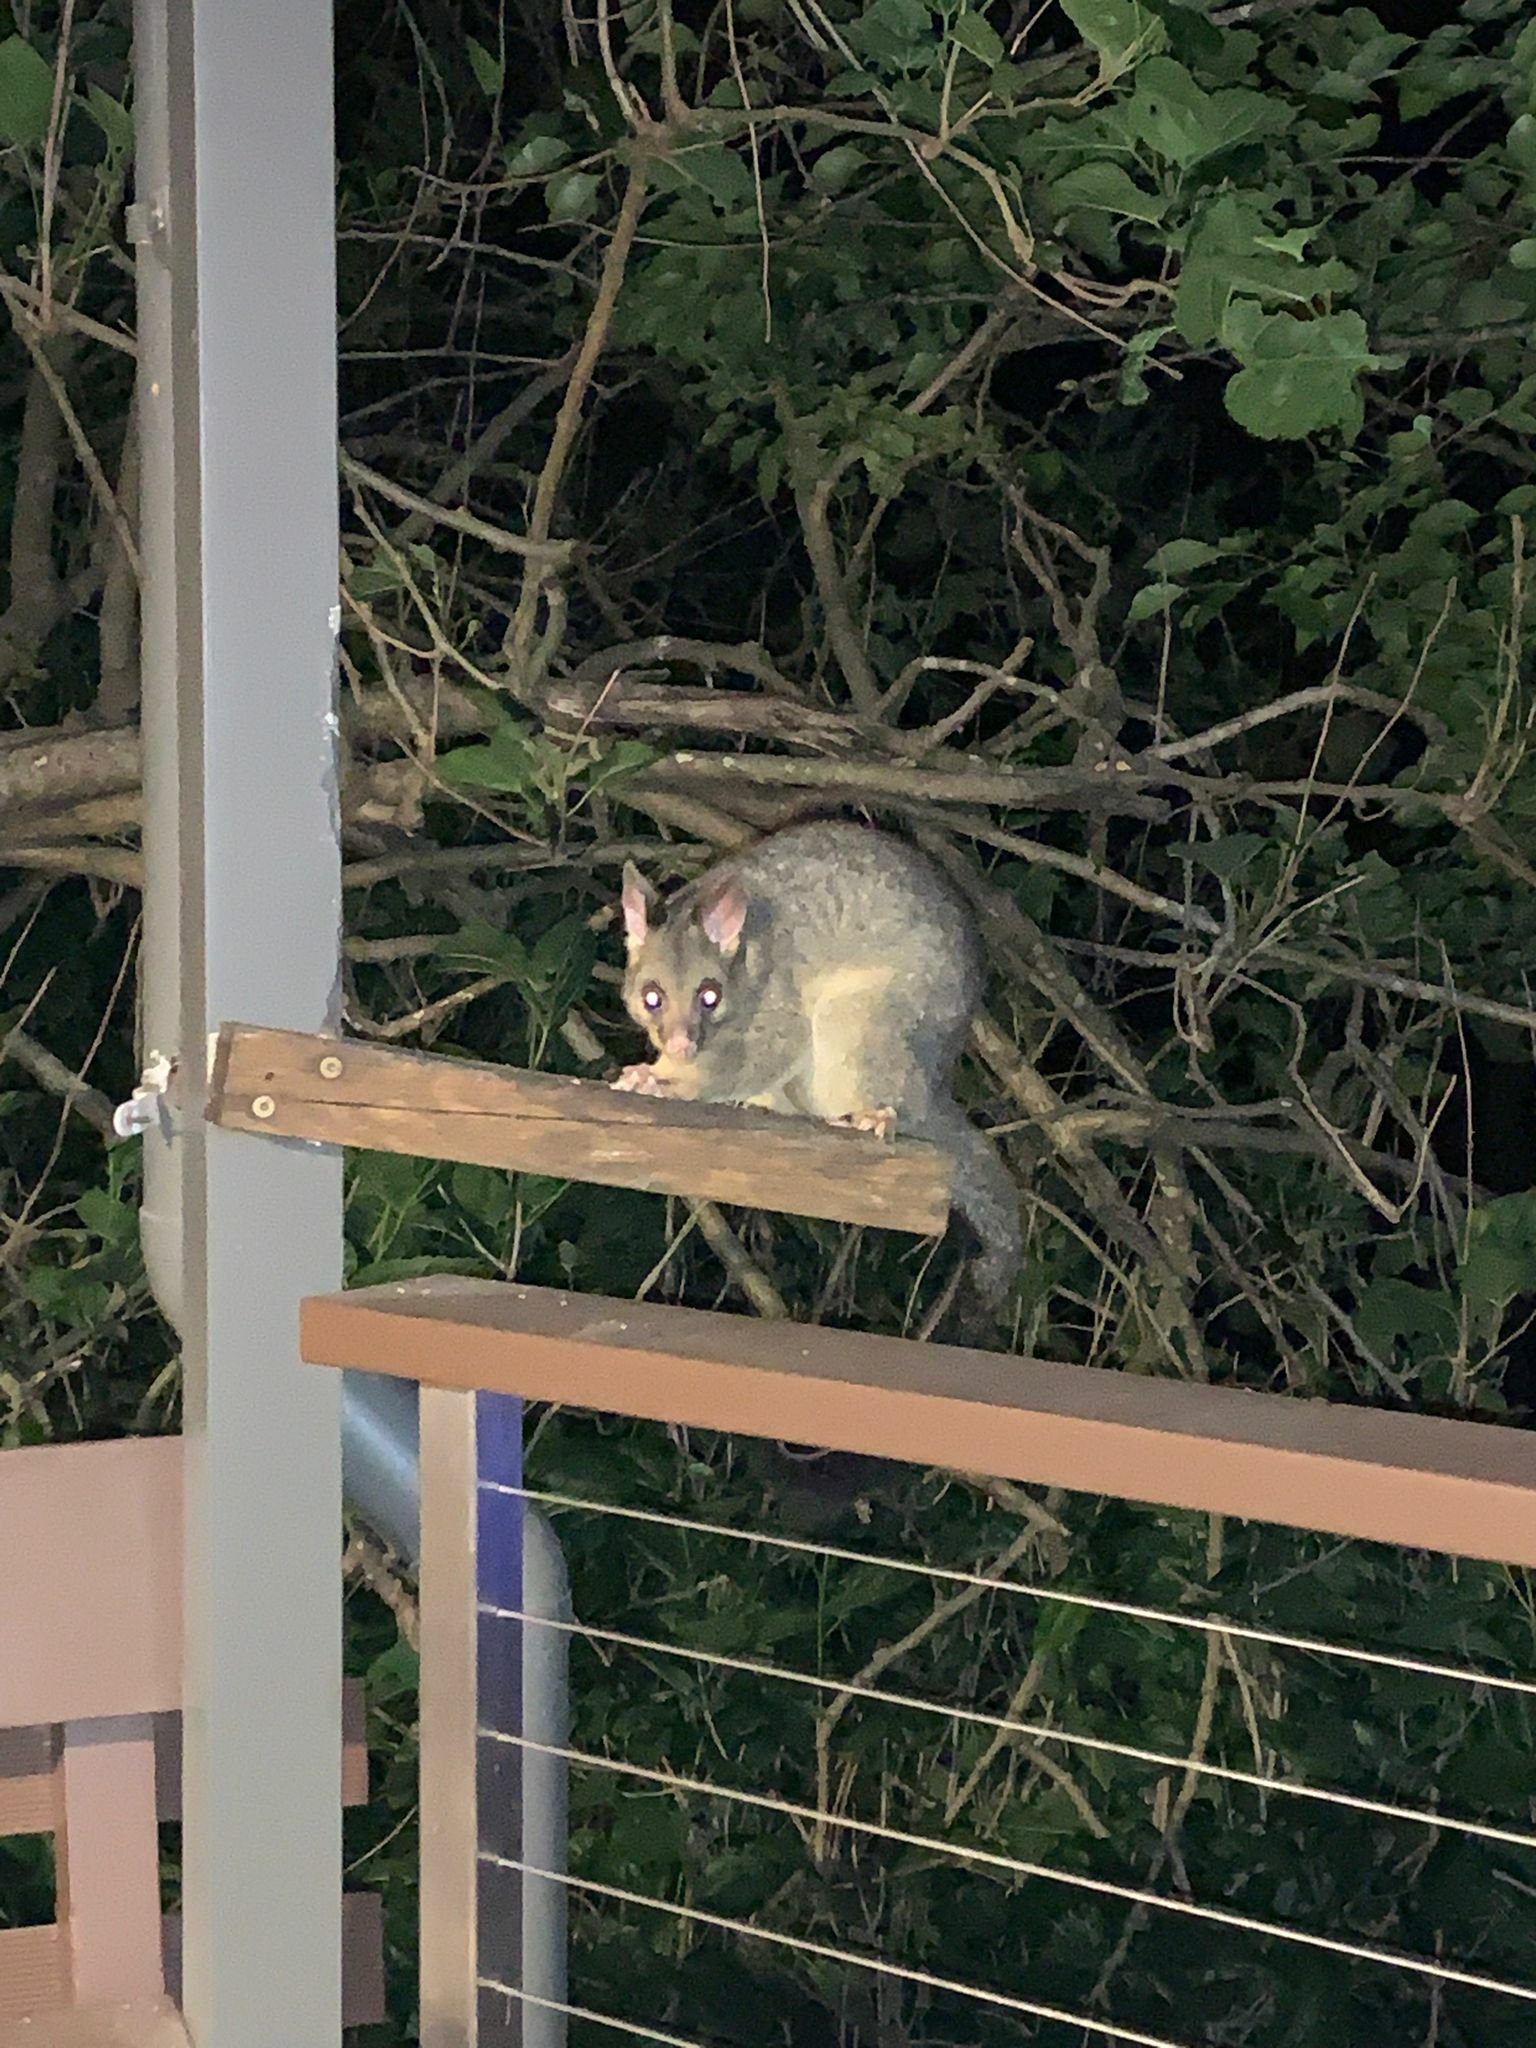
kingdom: Animalia
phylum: Chordata
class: Mammalia
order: Diprotodontia
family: Phalangeridae
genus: Trichosurus
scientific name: Trichosurus vulpecula
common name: Common brushtail
